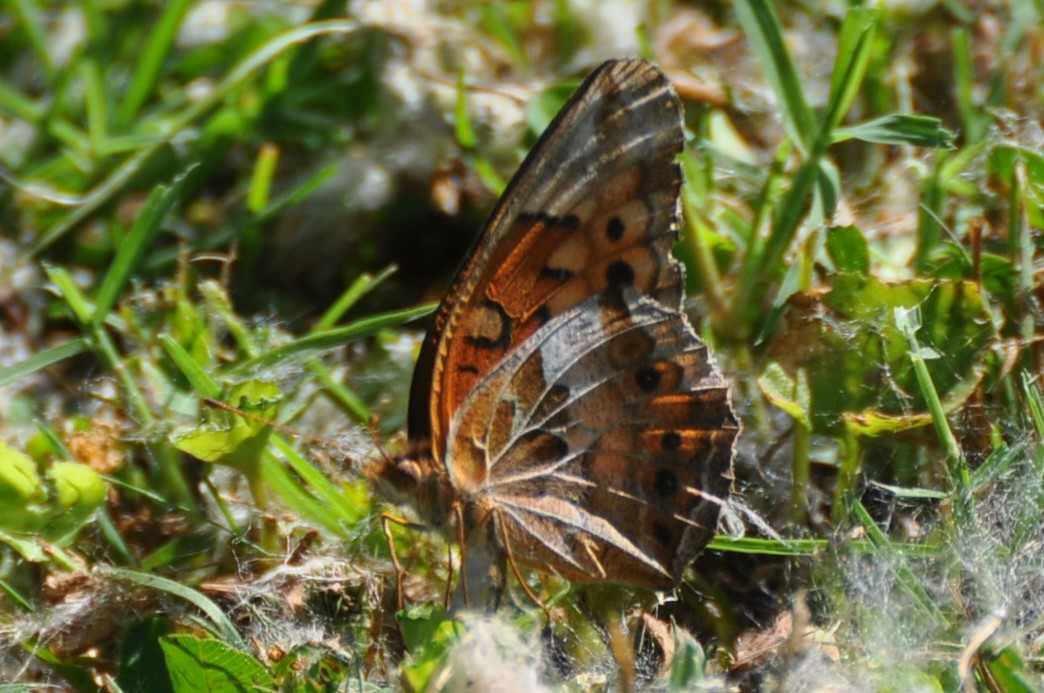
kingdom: Animalia
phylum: Arthropoda
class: Insecta
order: Lepidoptera
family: Nymphalidae
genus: Euptoieta
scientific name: Euptoieta claudia
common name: Variegated fritillary
